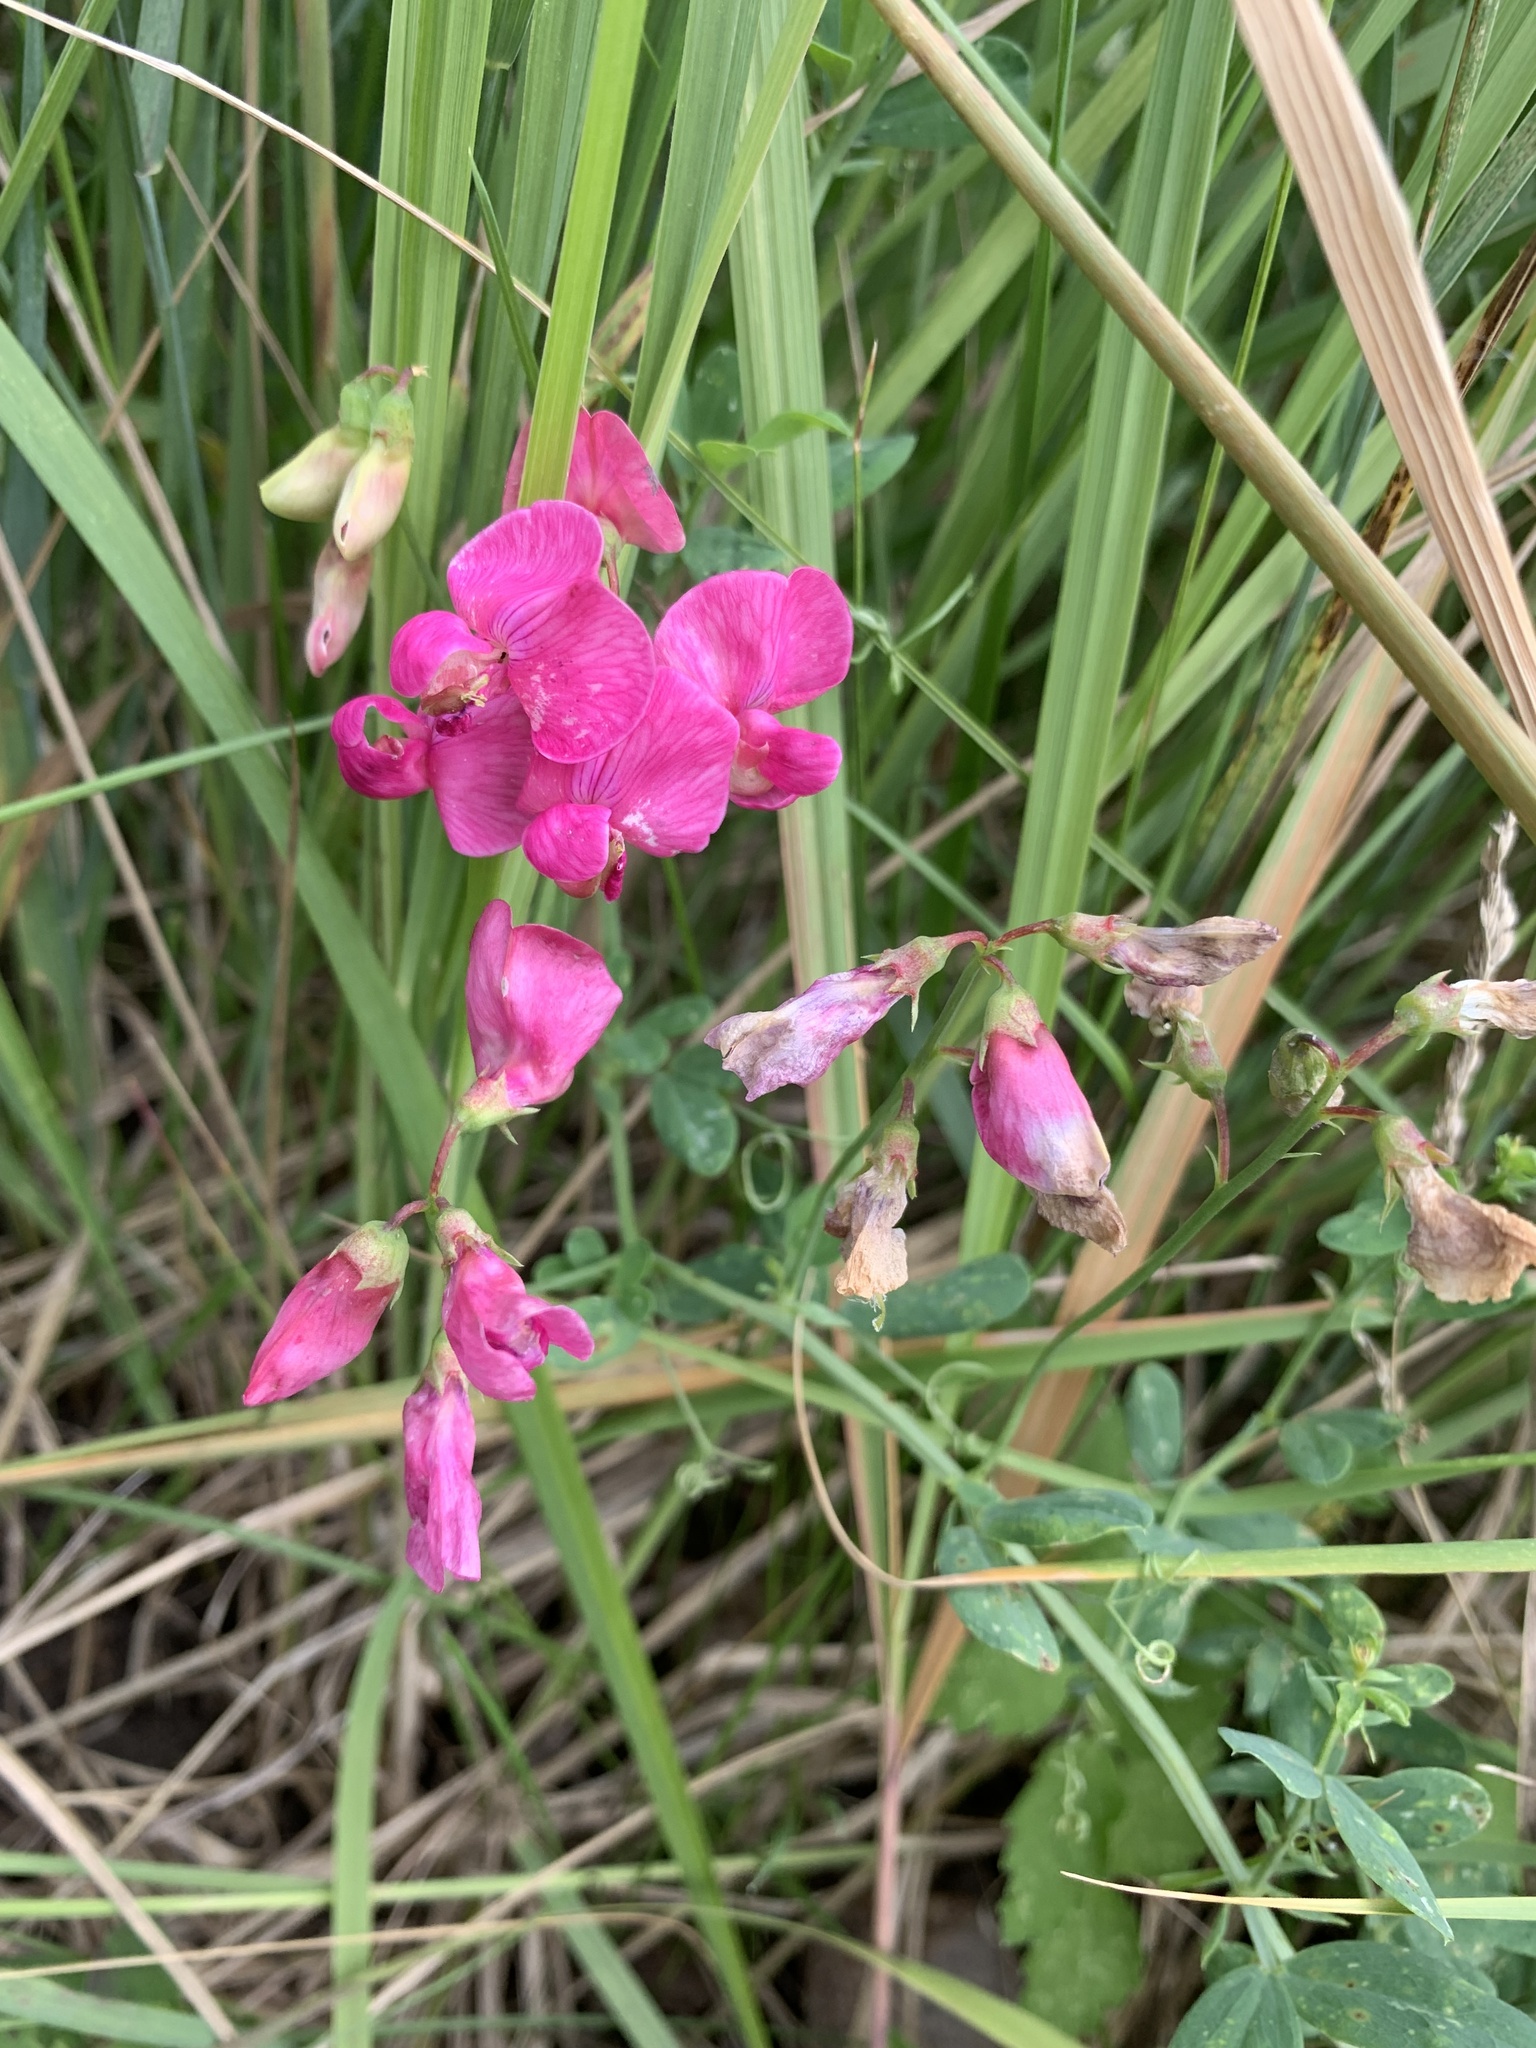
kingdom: Plantae
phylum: Tracheophyta
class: Magnoliopsida
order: Fabales
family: Fabaceae
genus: Lathyrus
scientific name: Lathyrus tuberosus
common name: Tuberous pea
